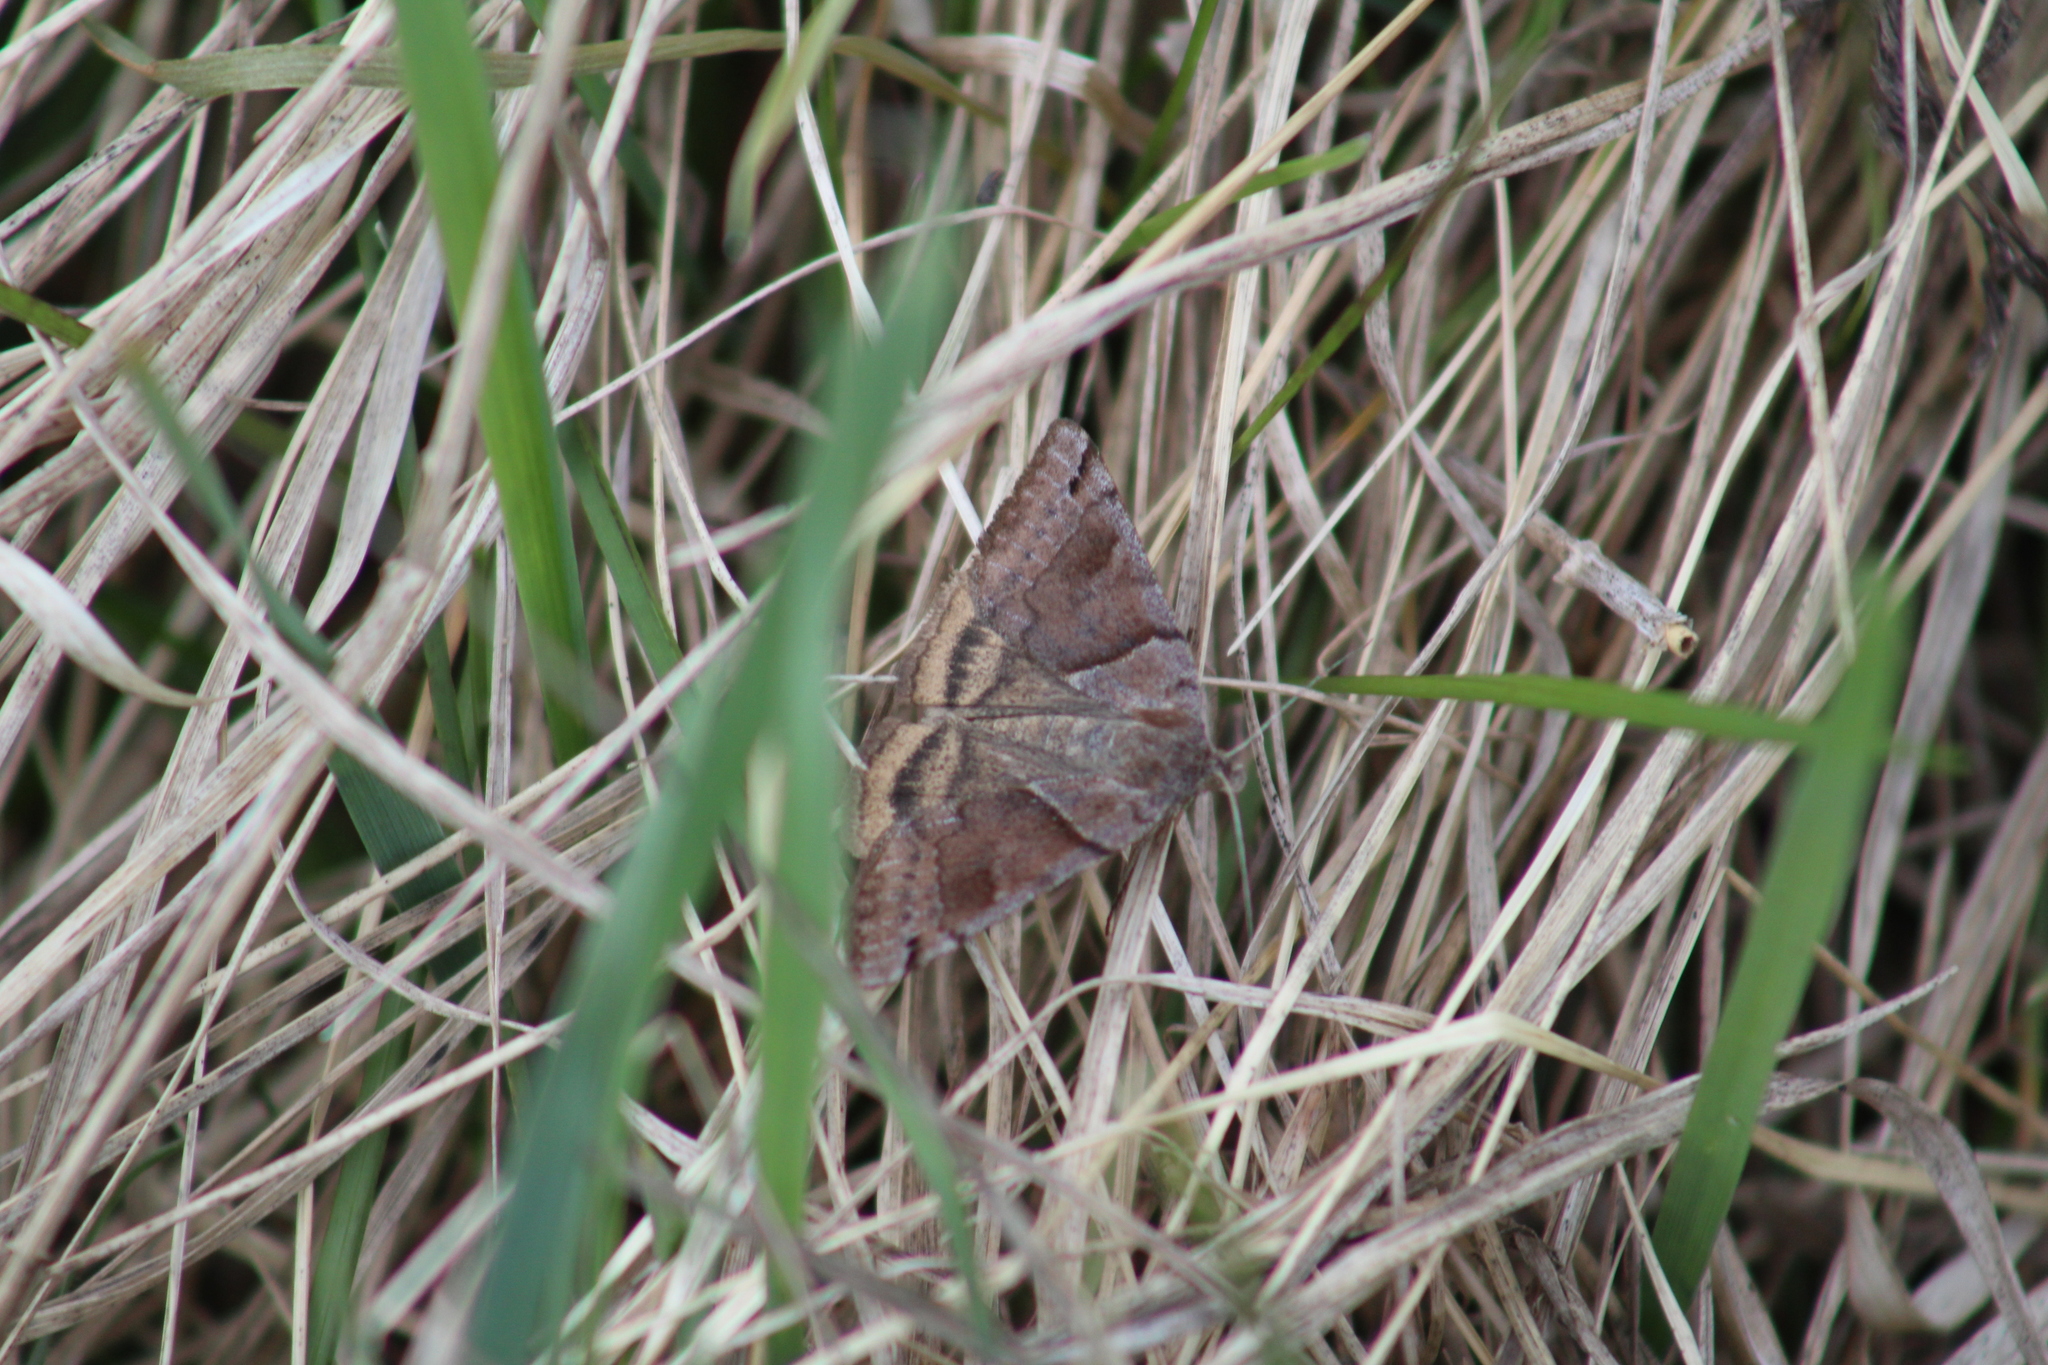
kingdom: Animalia
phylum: Arthropoda
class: Insecta
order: Lepidoptera
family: Erebidae
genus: Caenurgina
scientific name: Caenurgina crassiuscula
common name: Double-barred
